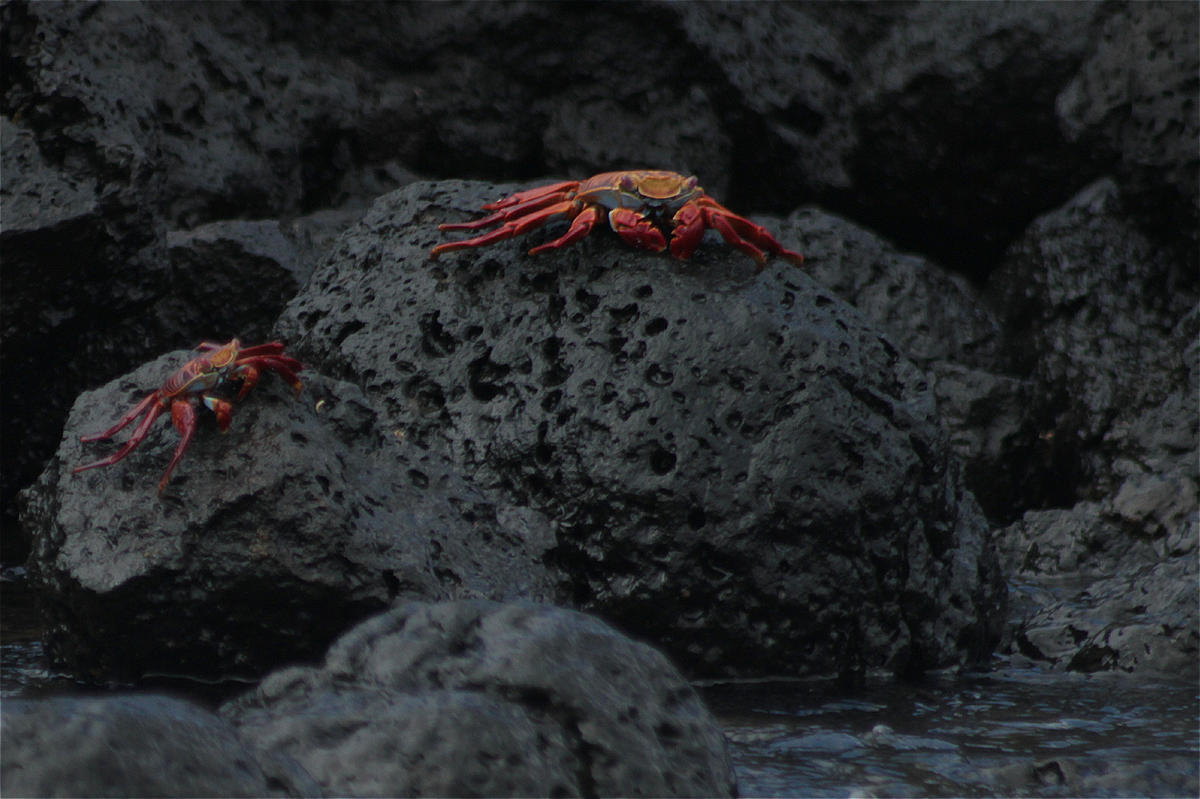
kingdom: Animalia
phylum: Arthropoda
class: Malacostraca
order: Decapoda
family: Grapsidae
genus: Grapsus
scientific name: Grapsus grapsus
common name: Sally lightfoot
